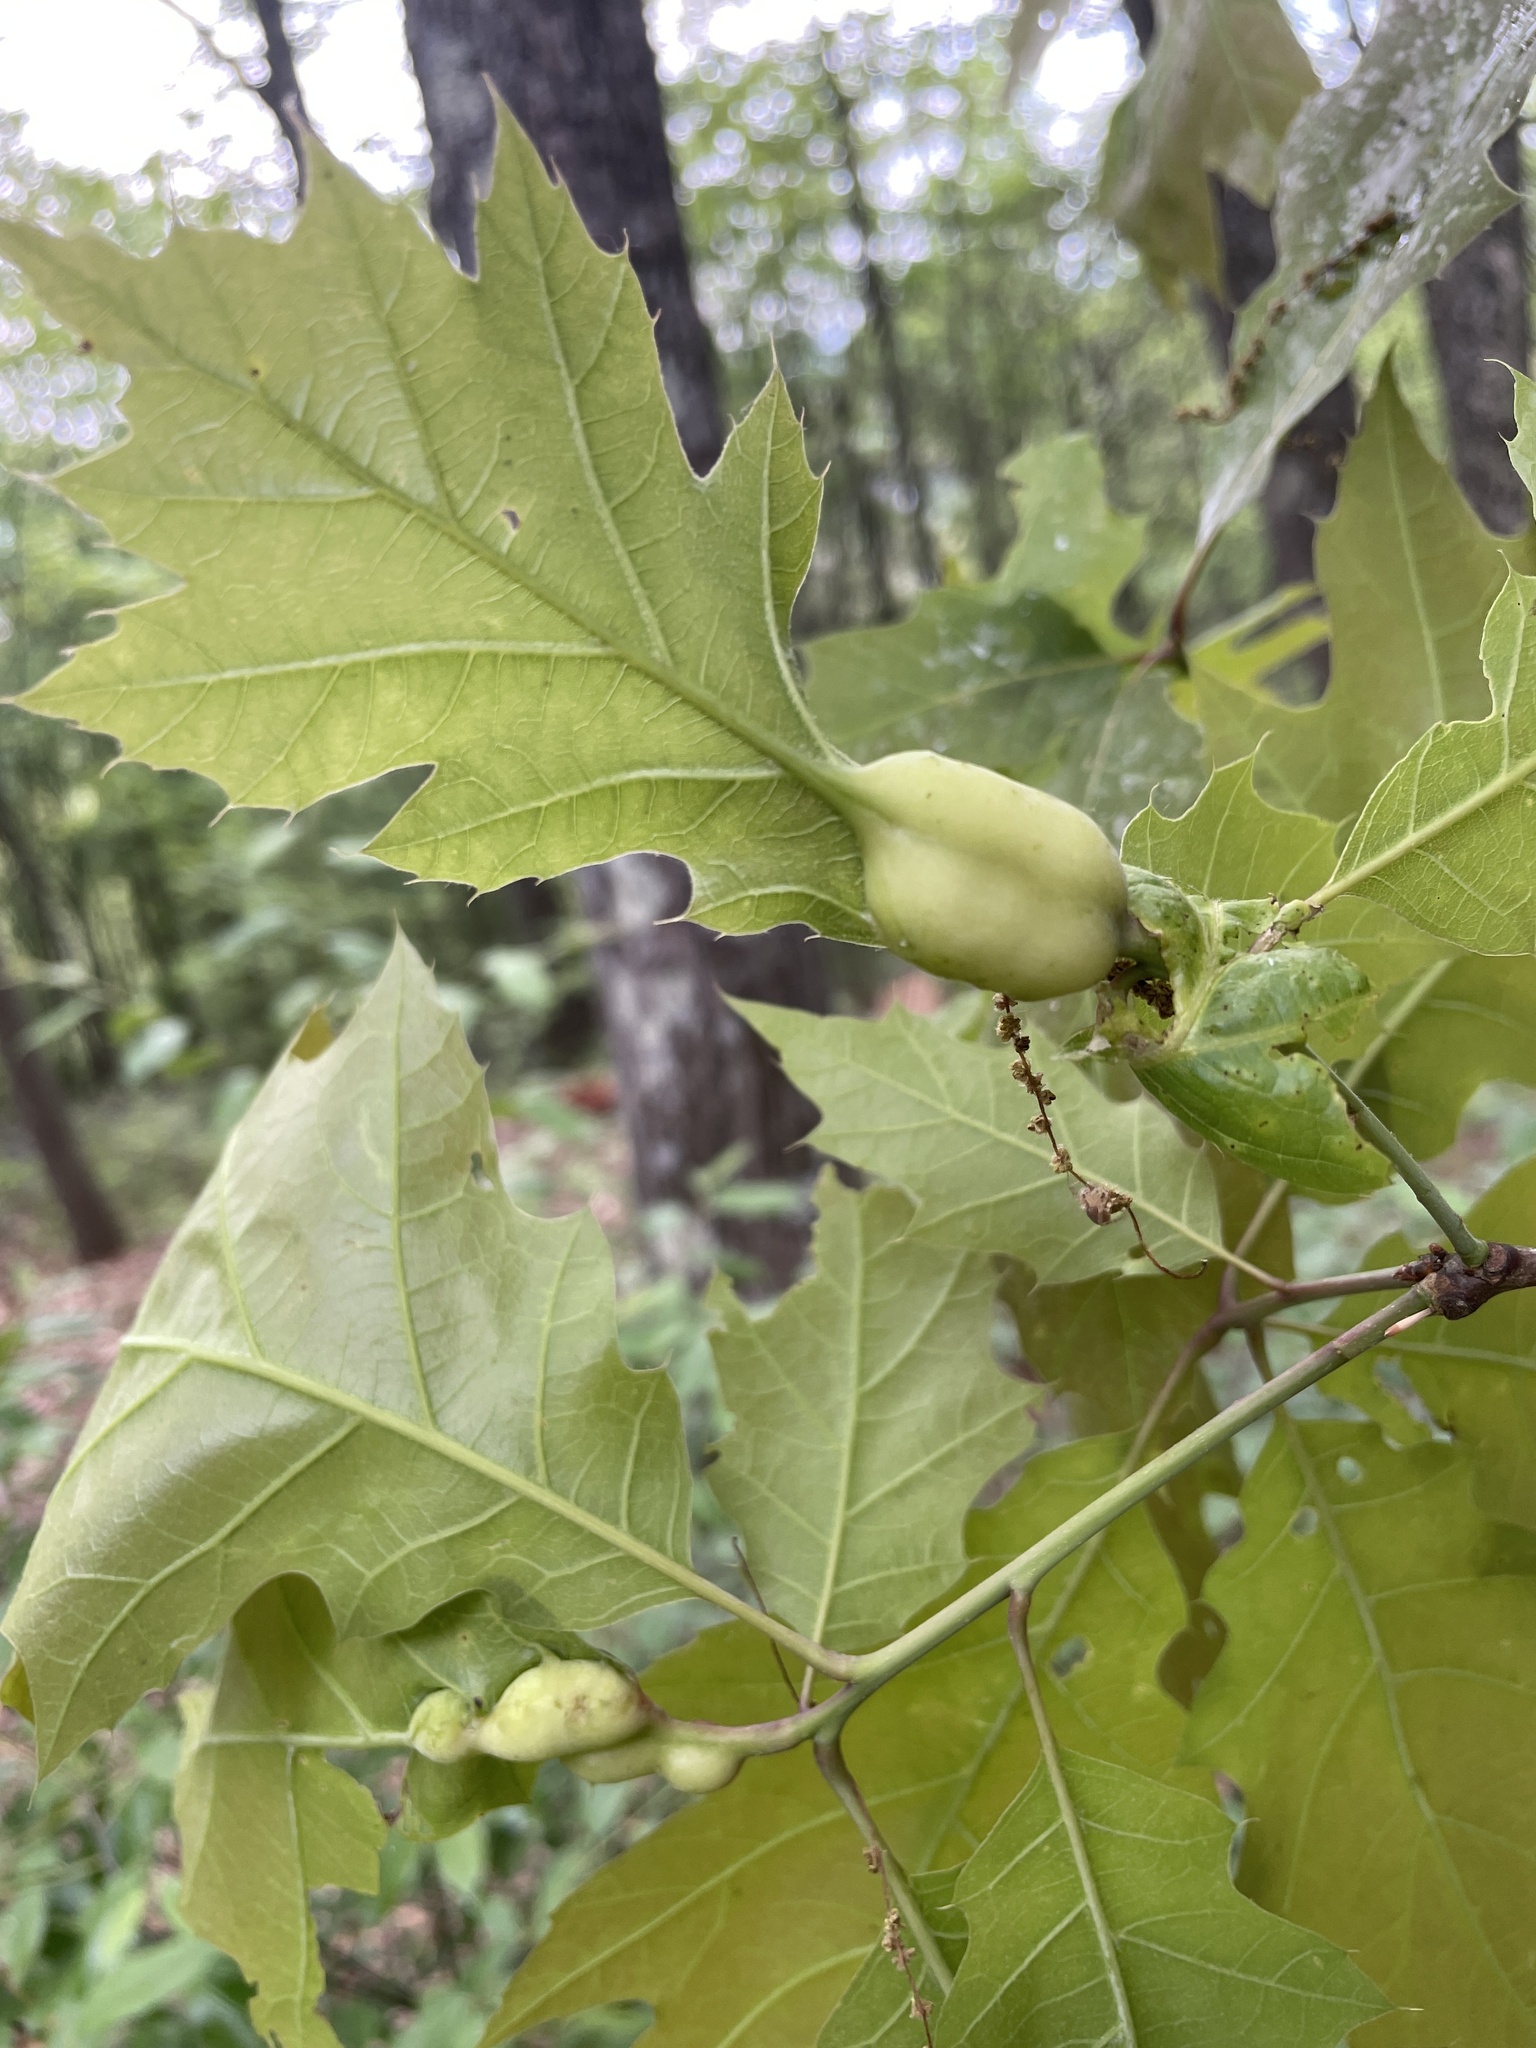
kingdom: Animalia
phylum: Arthropoda
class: Insecta
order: Hymenoptera
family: Cynipidae
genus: Melikaiella
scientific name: Melikaiella tumifica
